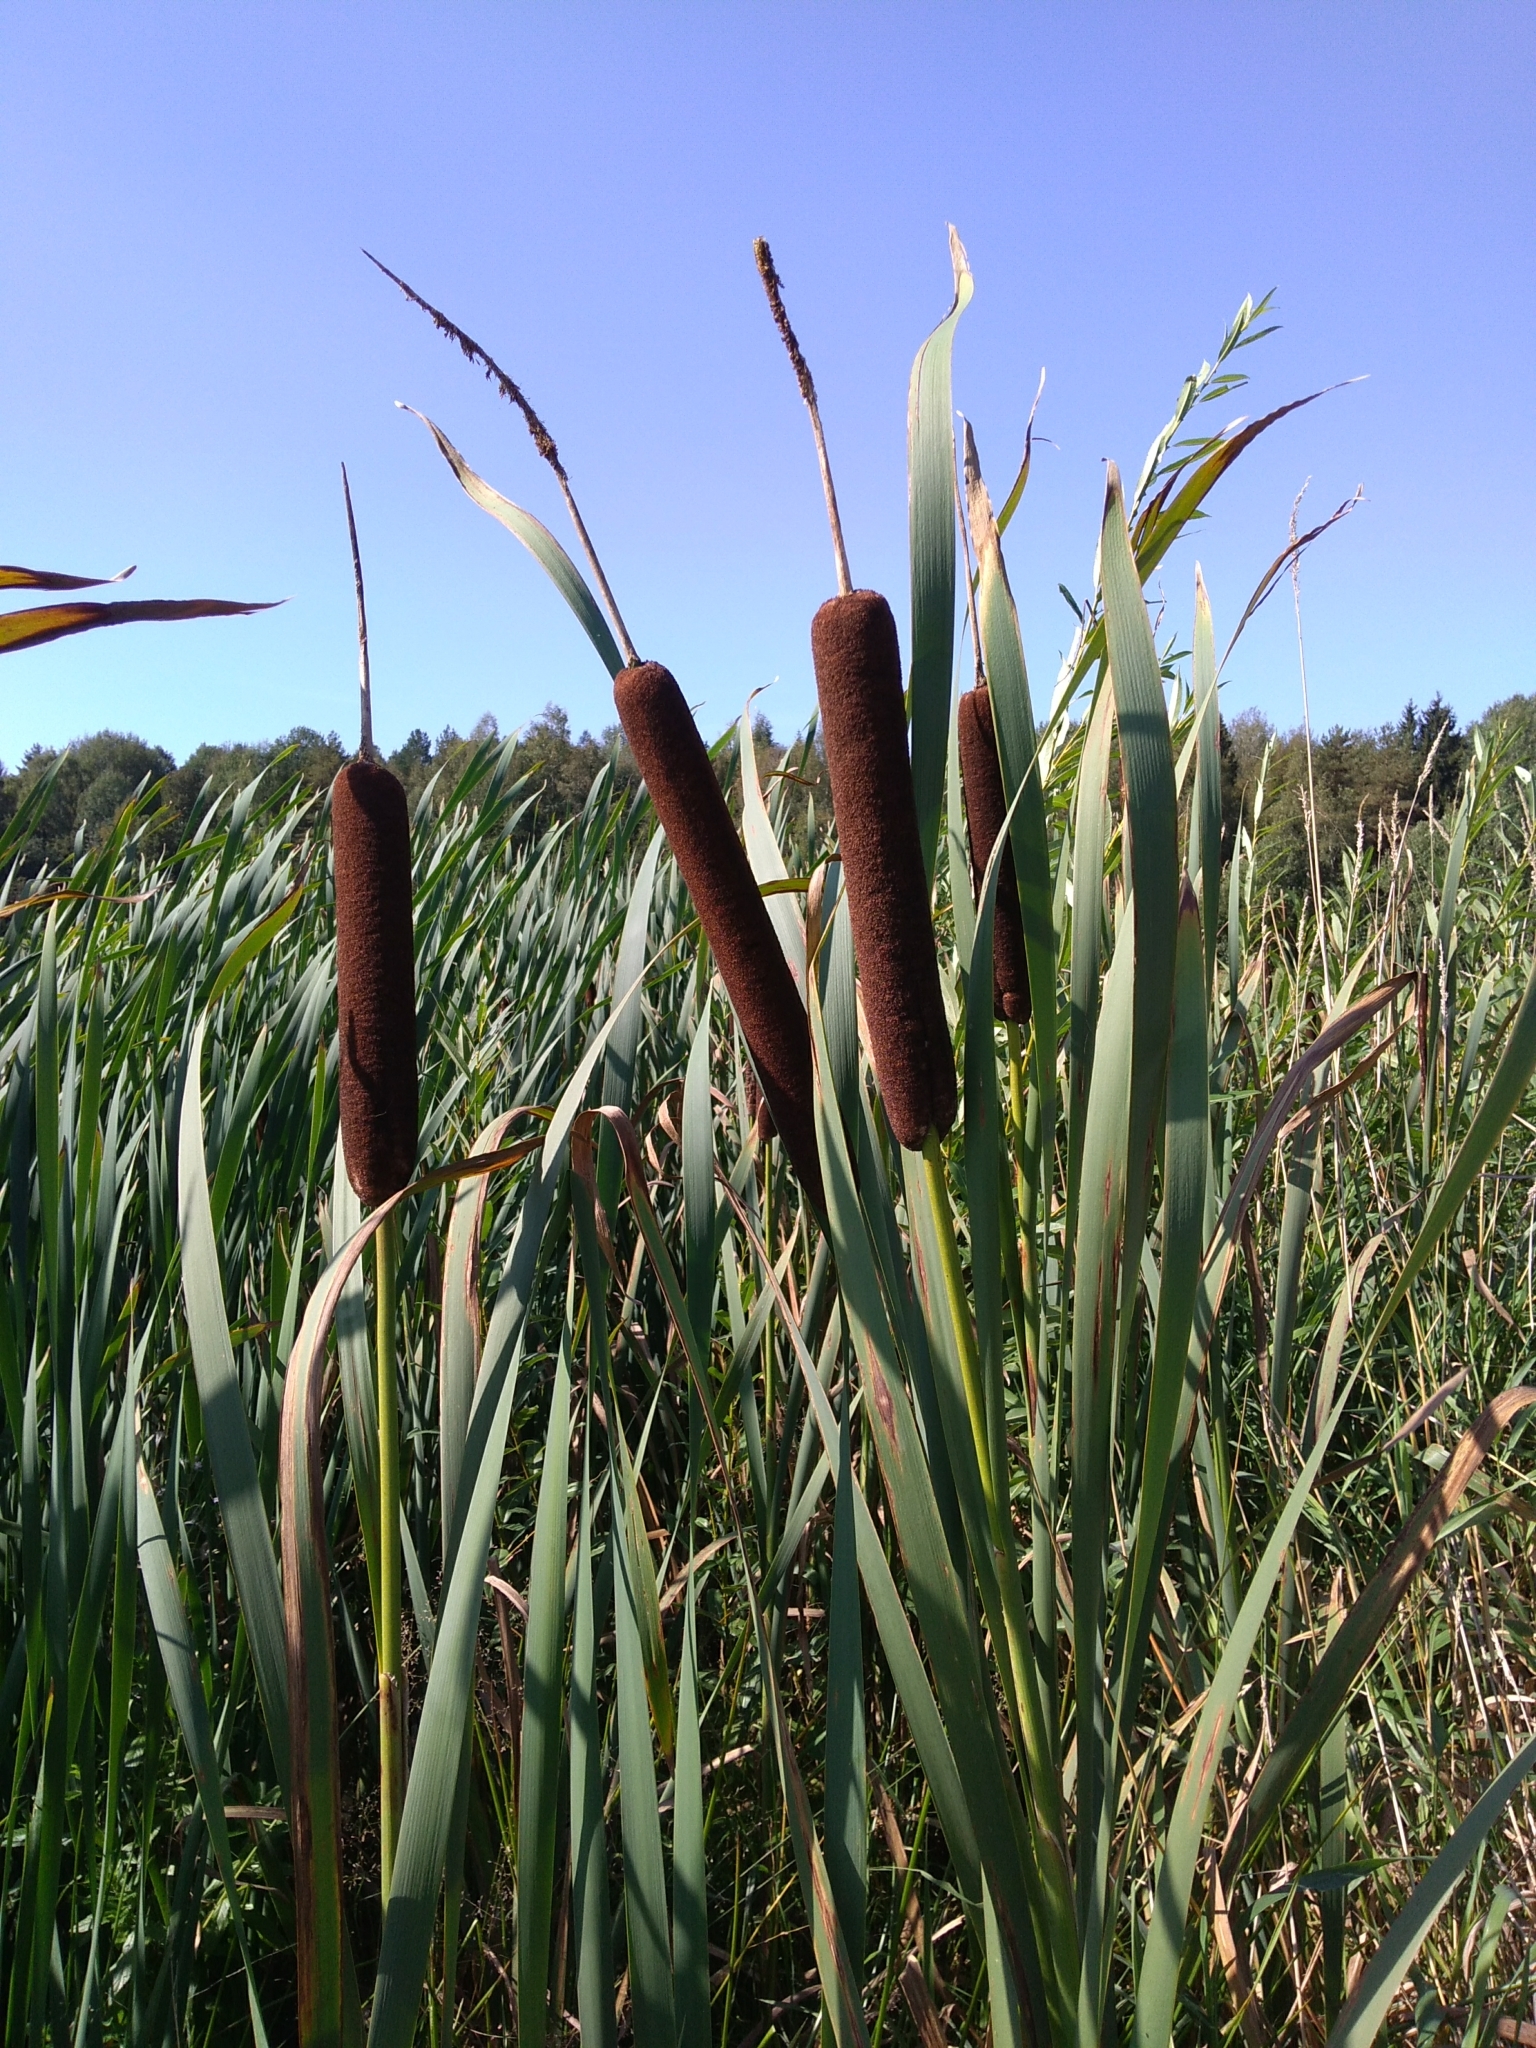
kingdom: Plantae
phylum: Tracheophyta
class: Liliopsida
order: Poales
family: Typhaceae
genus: Typha
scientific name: Typha latifolia
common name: Broadleaf cattail
